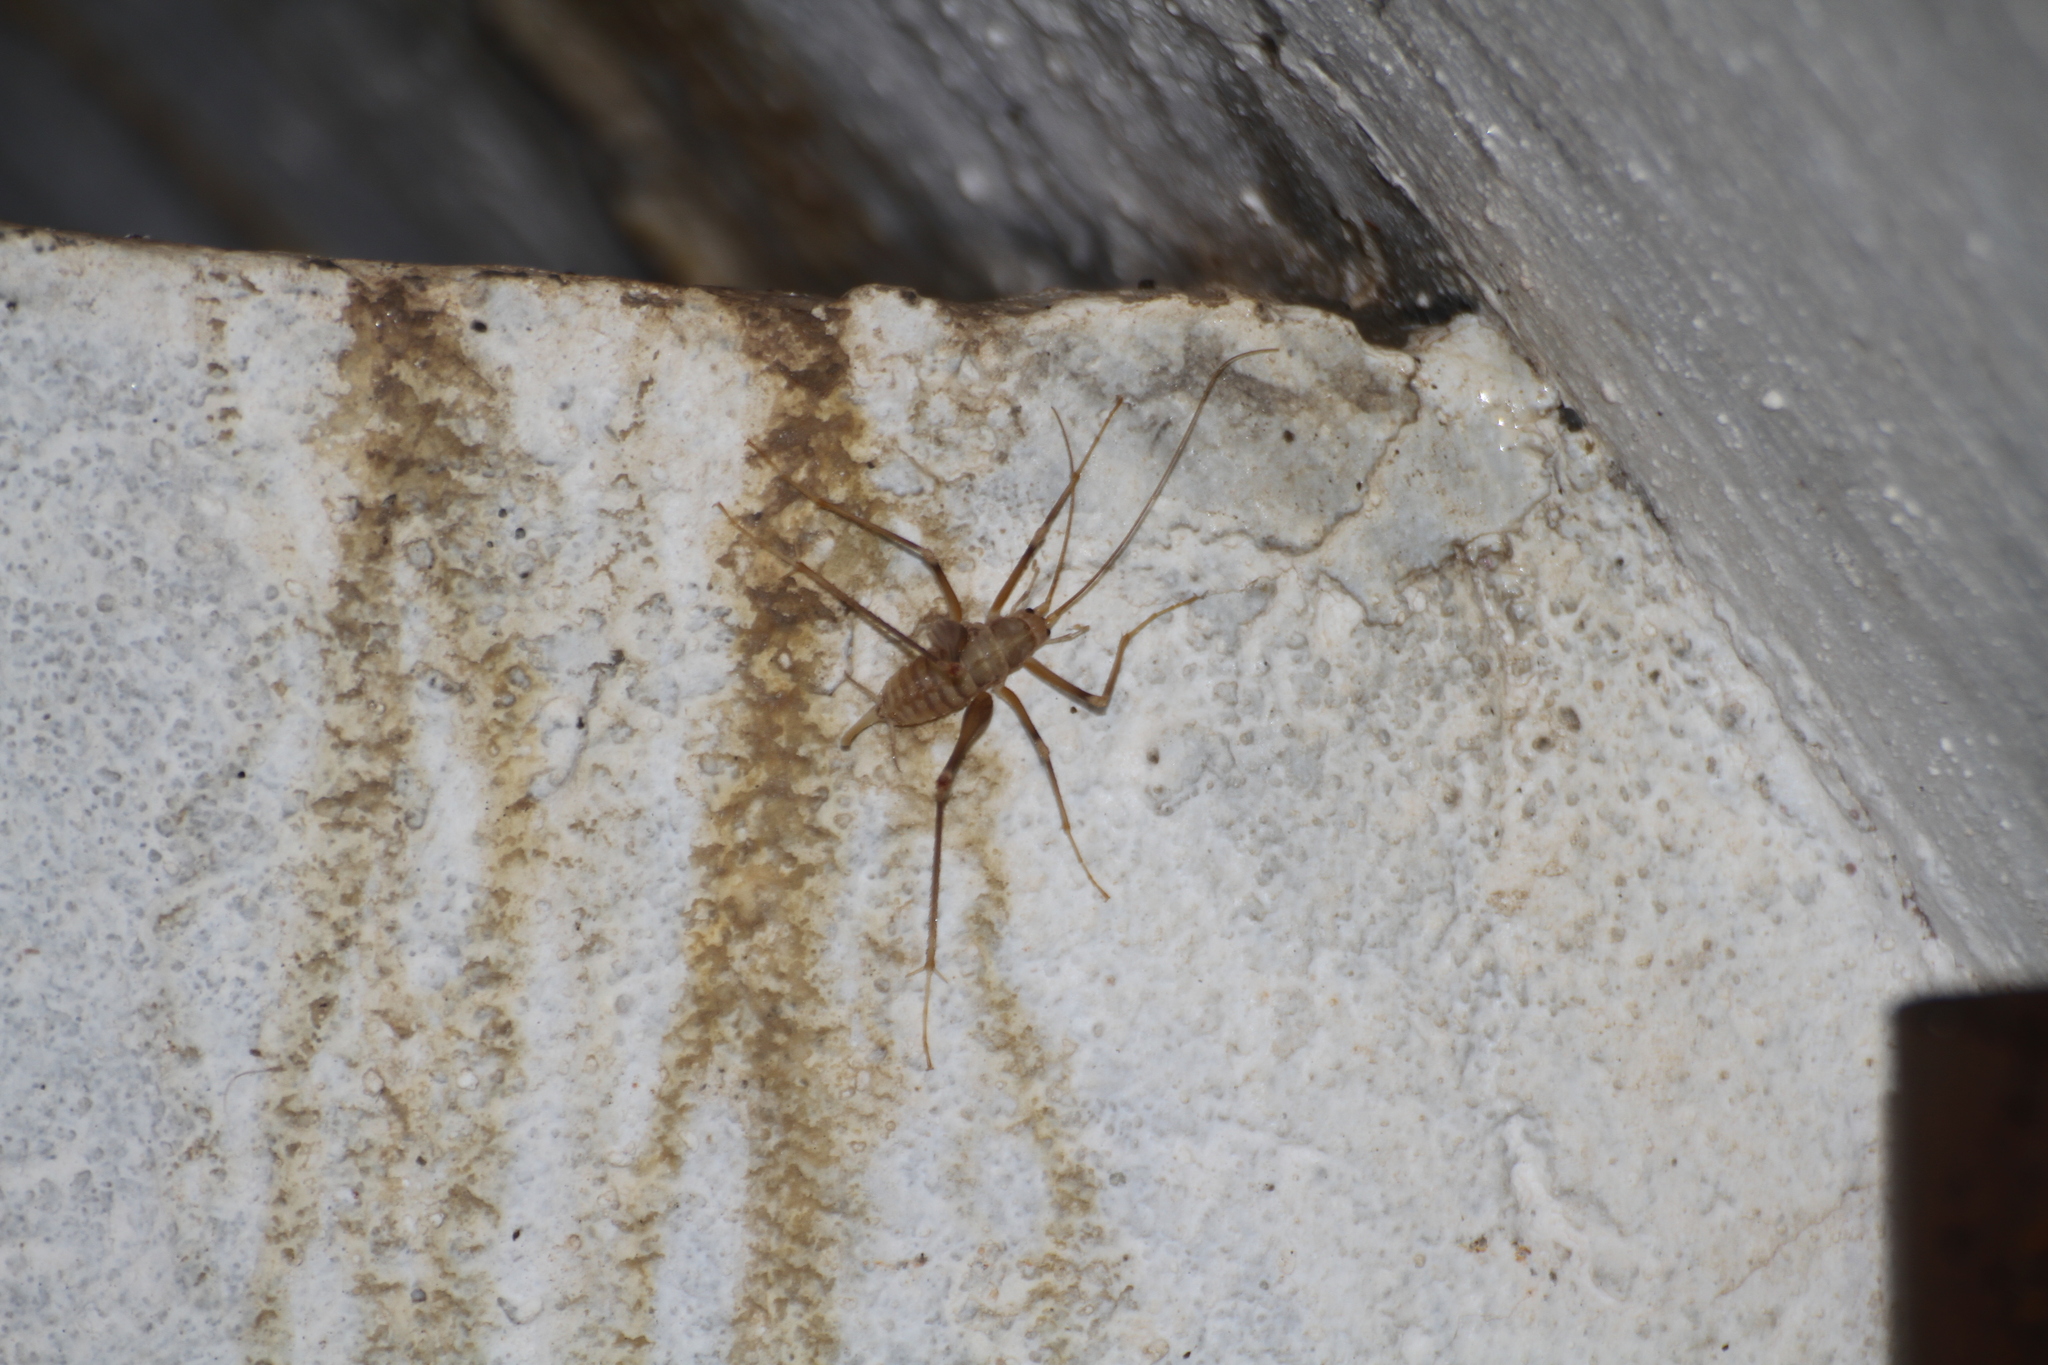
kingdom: Animalia
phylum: Arthropoda
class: Insecta
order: Orthoptera
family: Rhaphidophoridae
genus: Dolichopoda
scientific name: Dolichopoda azami
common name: Azam's cave-cricket
